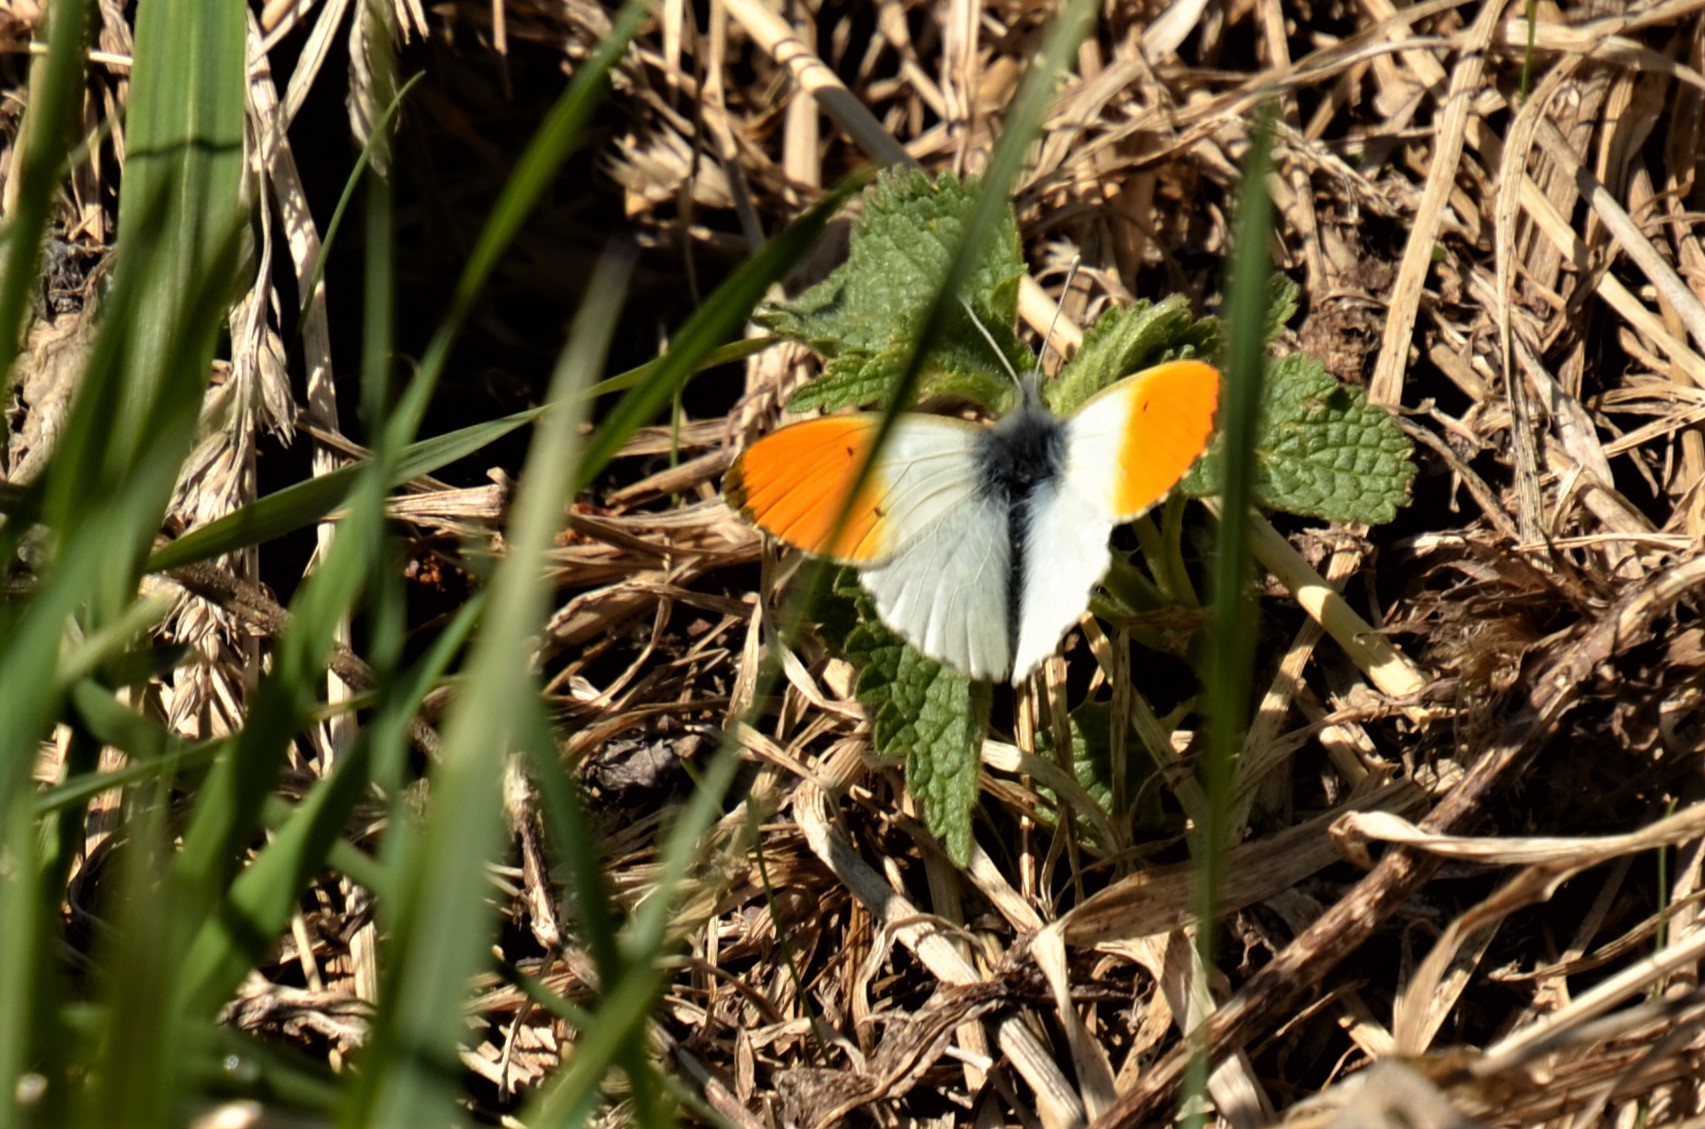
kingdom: Animalia
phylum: Arthropoda
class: Insecta
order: Lepidoptera
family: Pieridae
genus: Anthocharis
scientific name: Anthocharis cardamines
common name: Orange-tip
